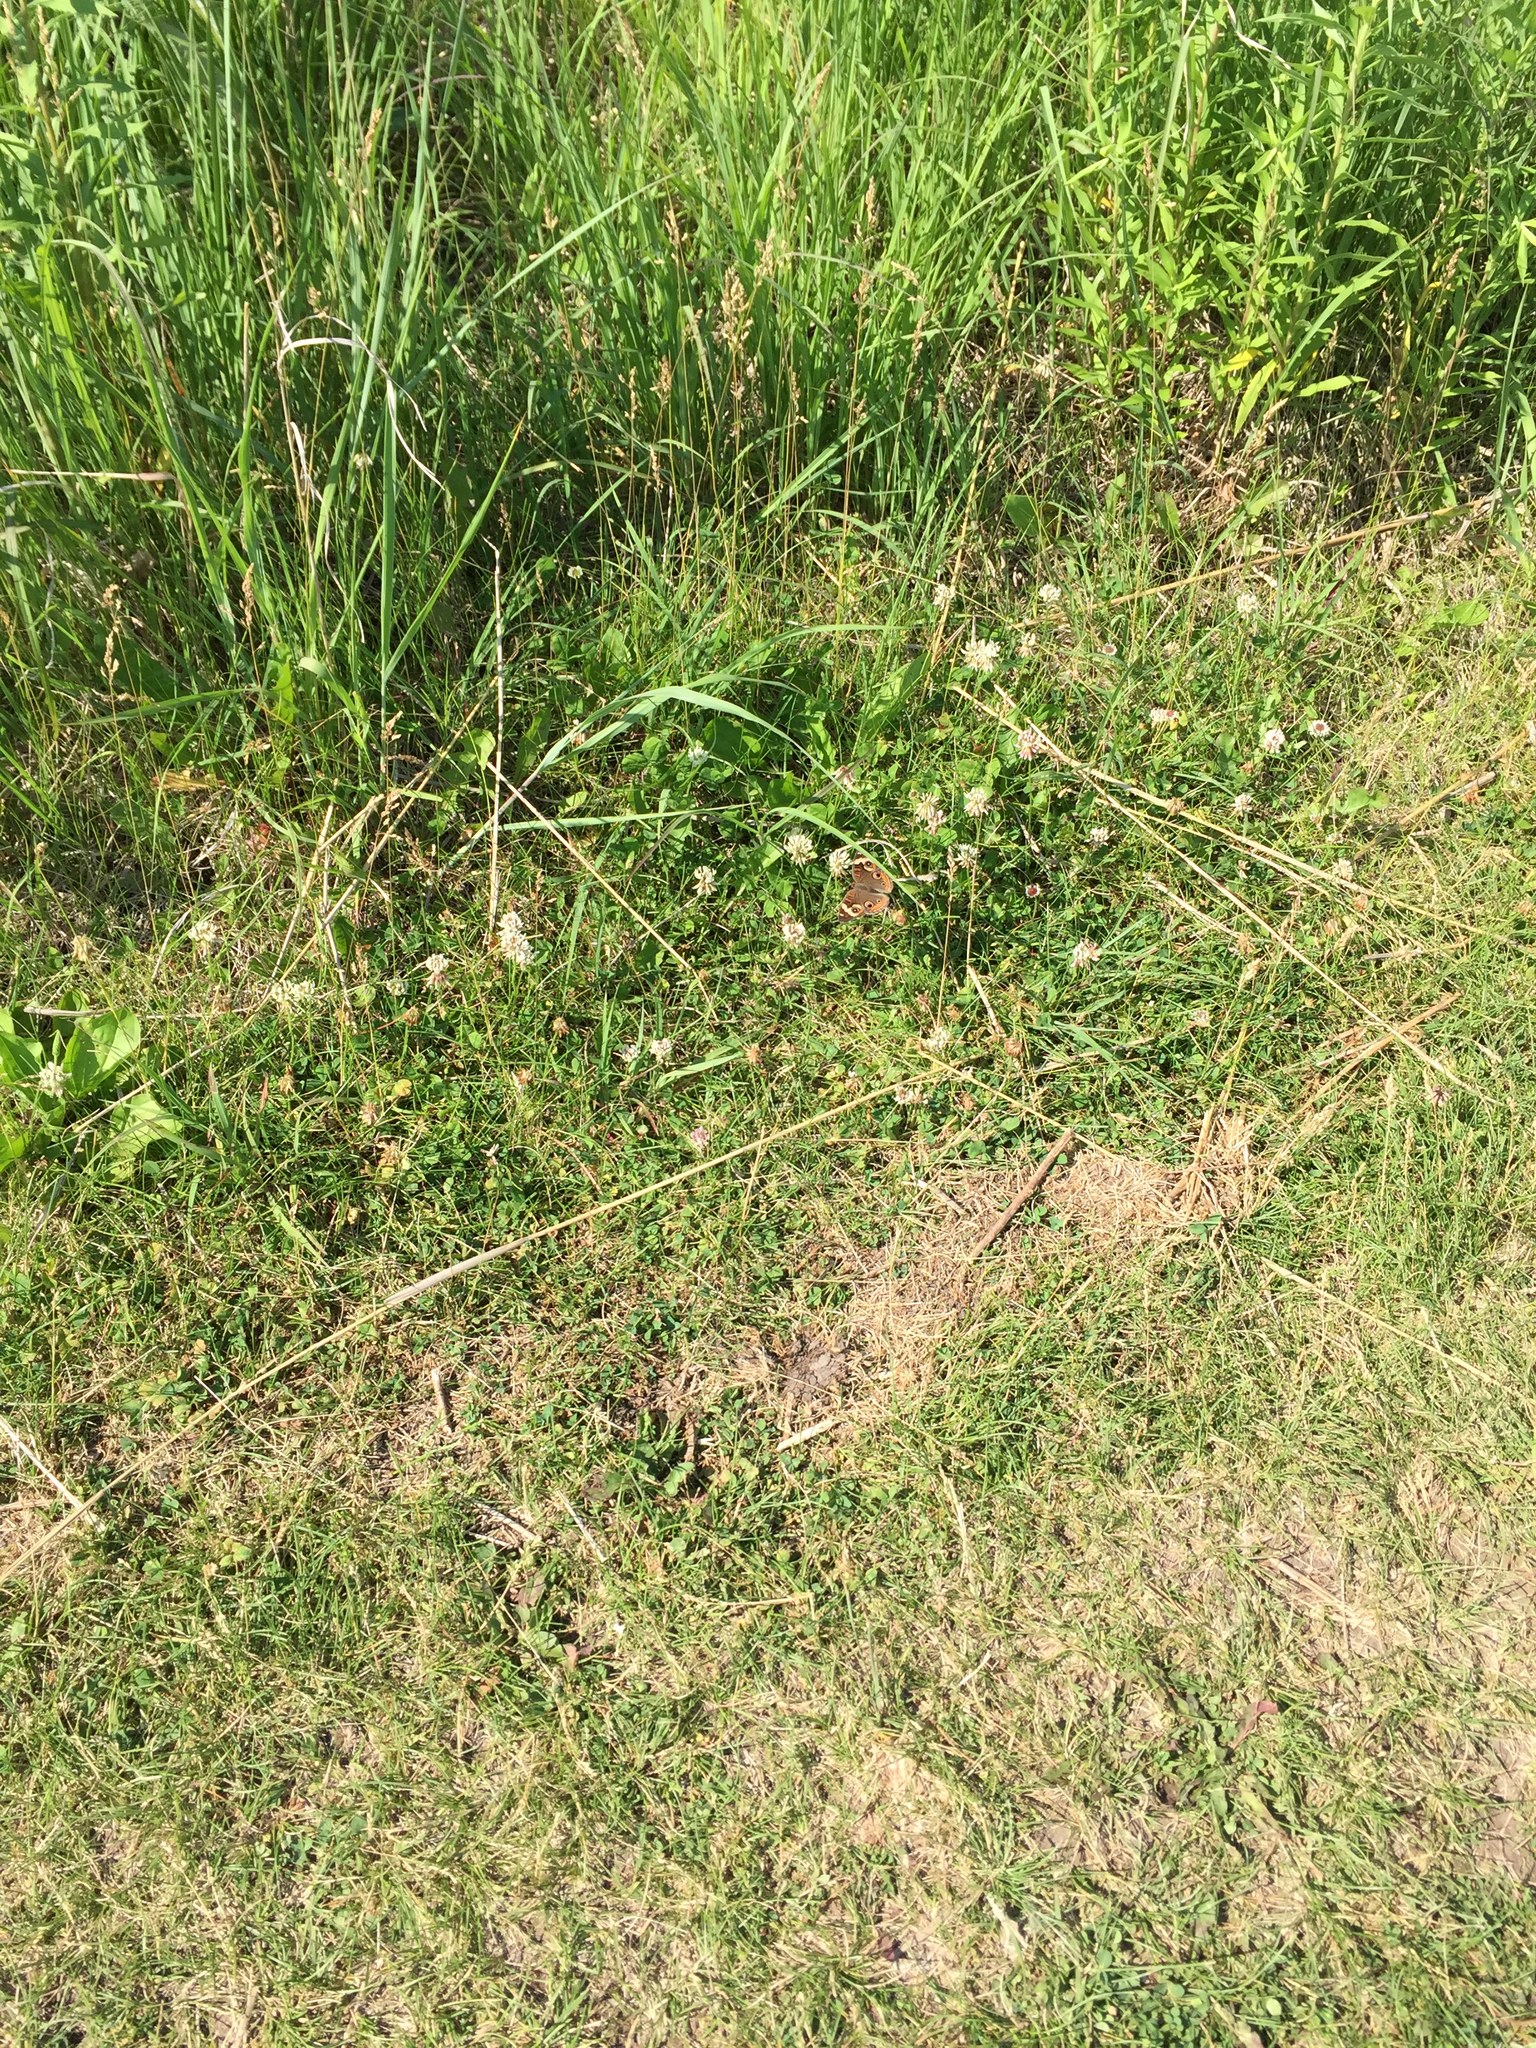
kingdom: Animalia
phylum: Arthropoda
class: Insecta
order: Lepidoptera
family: Nymphalidae
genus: Junonia
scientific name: Junonia coenia
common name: Common buckeye
